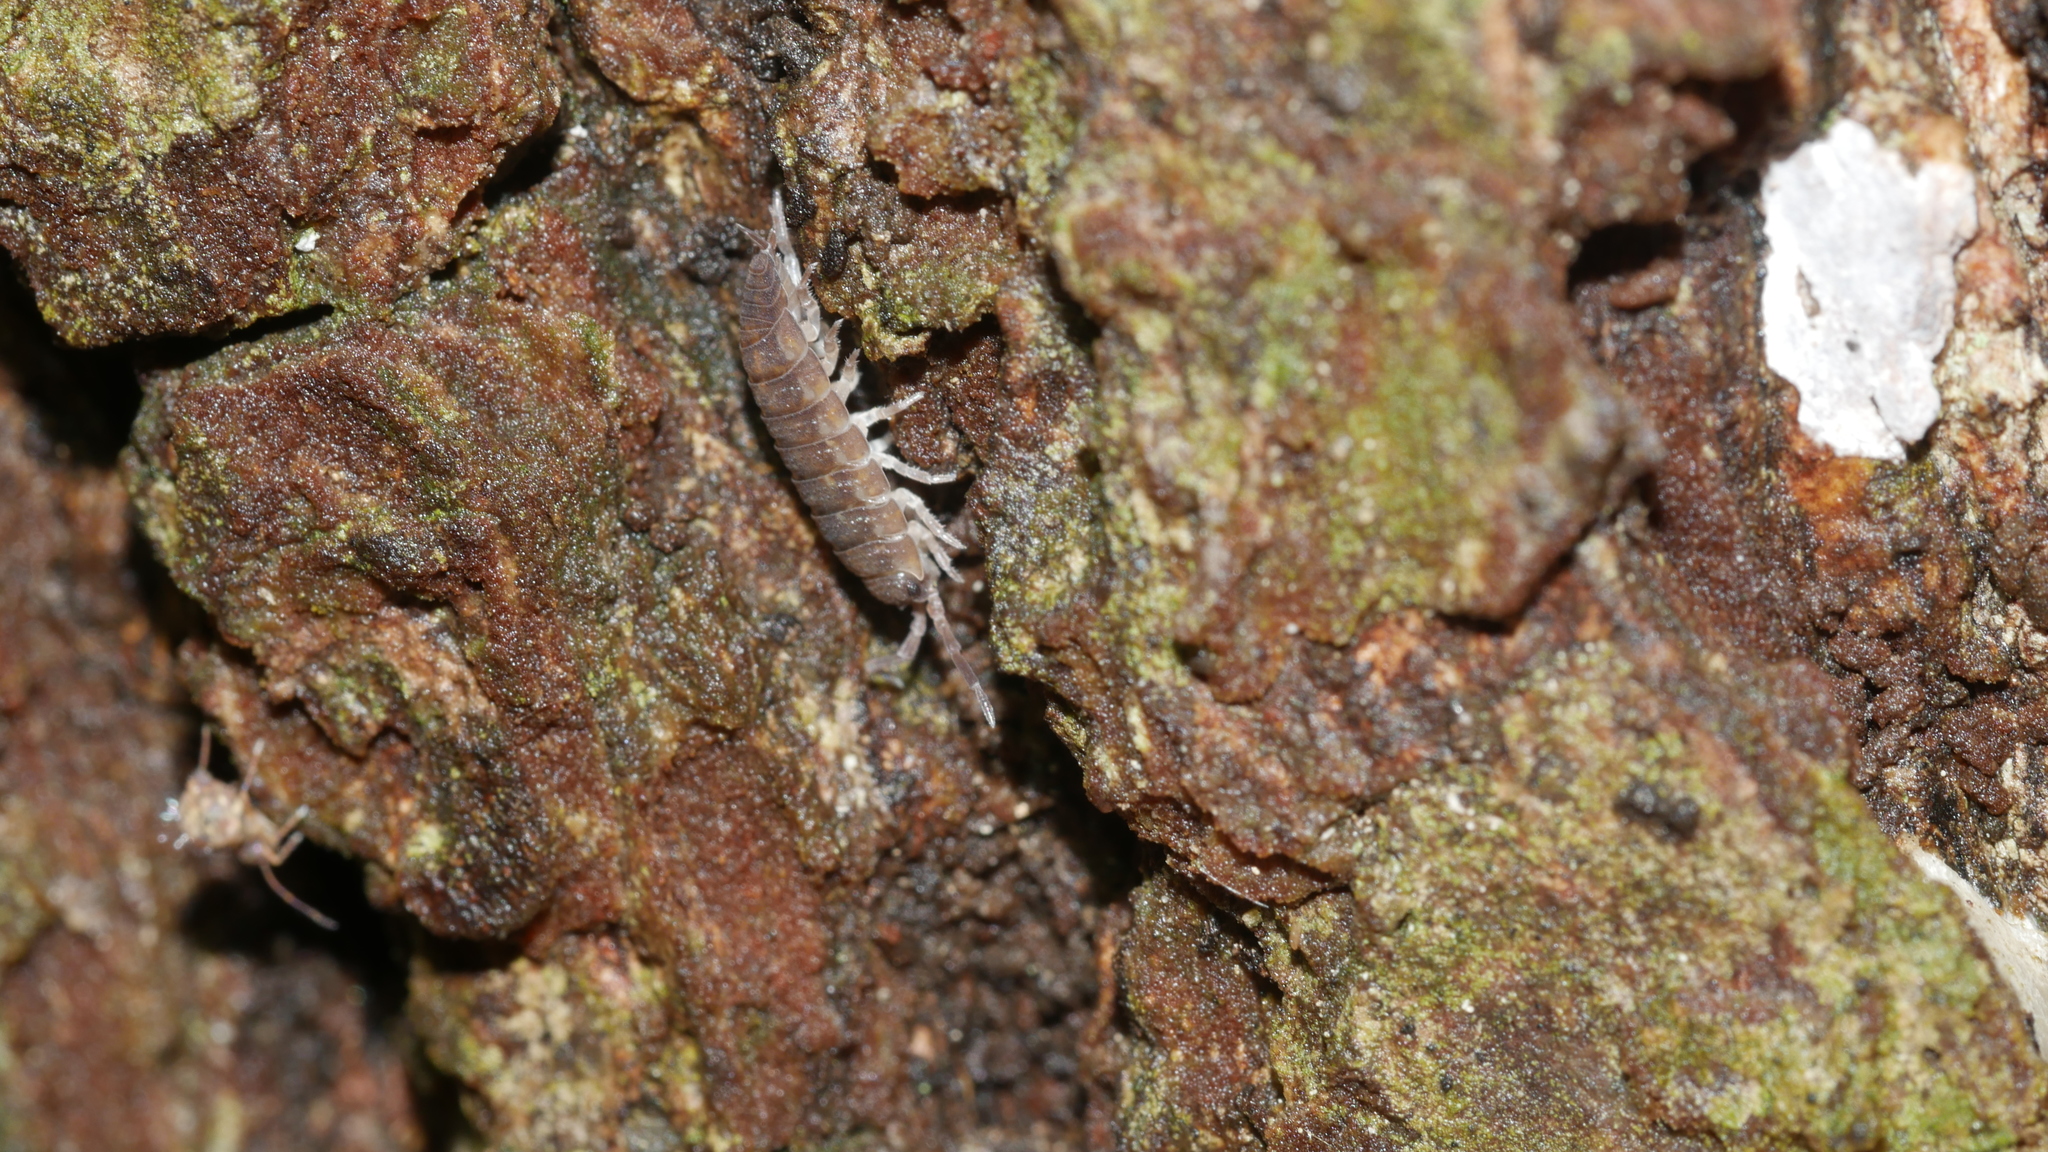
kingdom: Animalia
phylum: Arthropoda
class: Malacostraca
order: Isopoda
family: Porcellionidae
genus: Porcellio
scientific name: Porcellio scaber
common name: Common rough woodlouse
